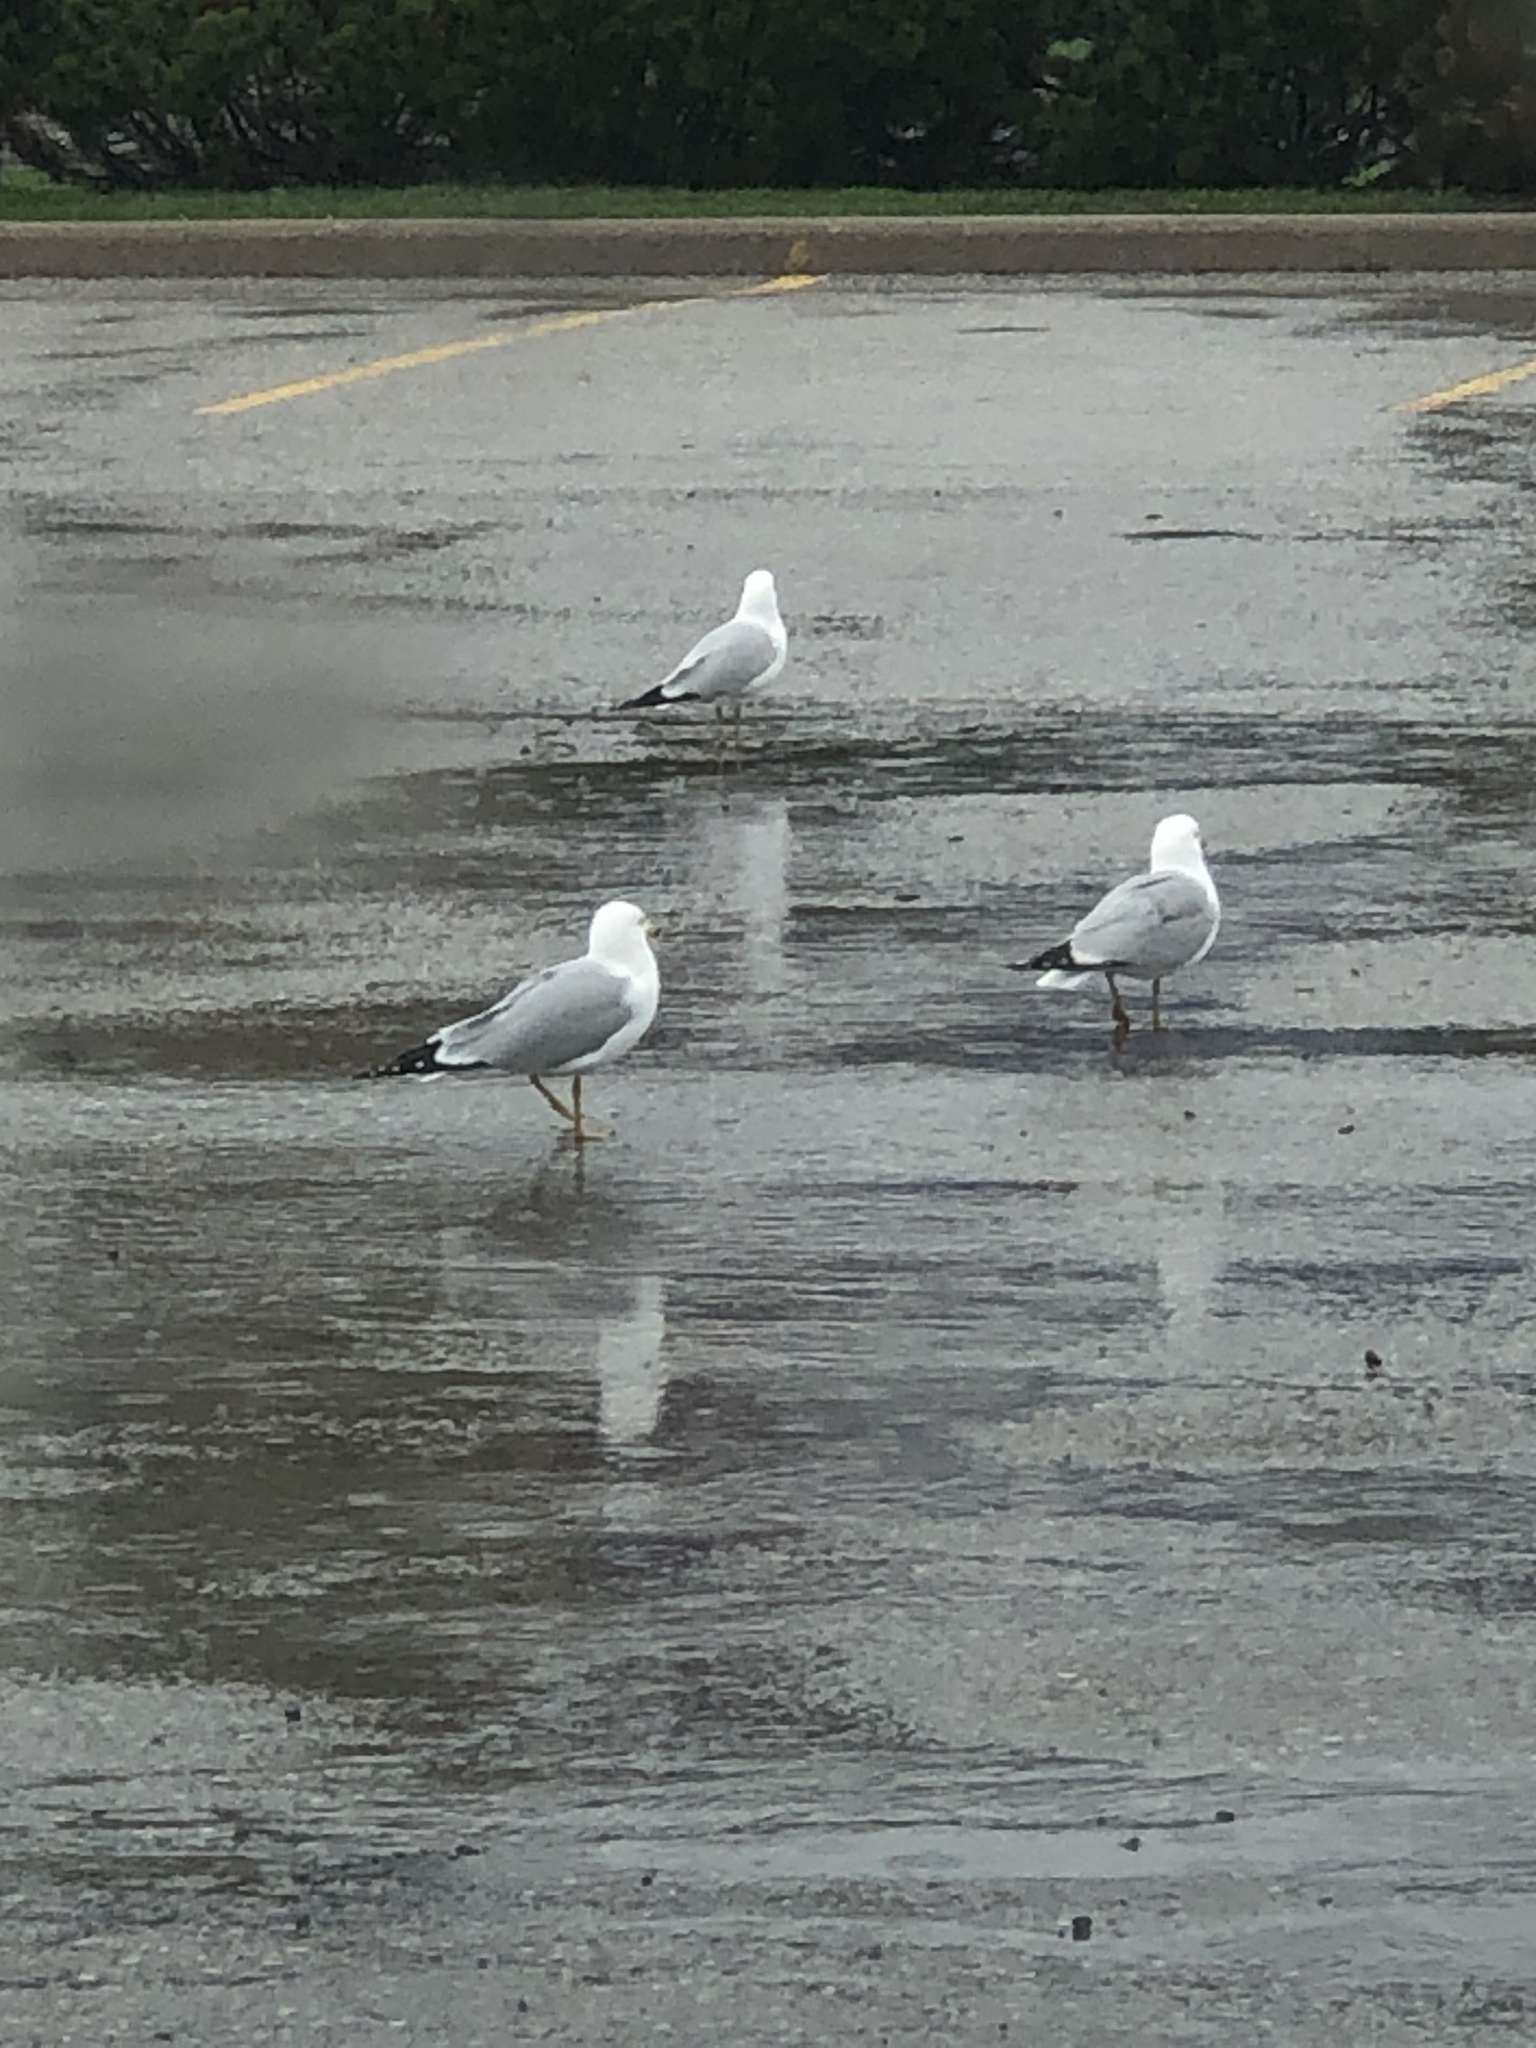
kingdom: Animalia
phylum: Chordata
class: Aves
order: Charadriiformes
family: Laridae
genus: Larus
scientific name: Larus delawarensis
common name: Ring-billed gull
